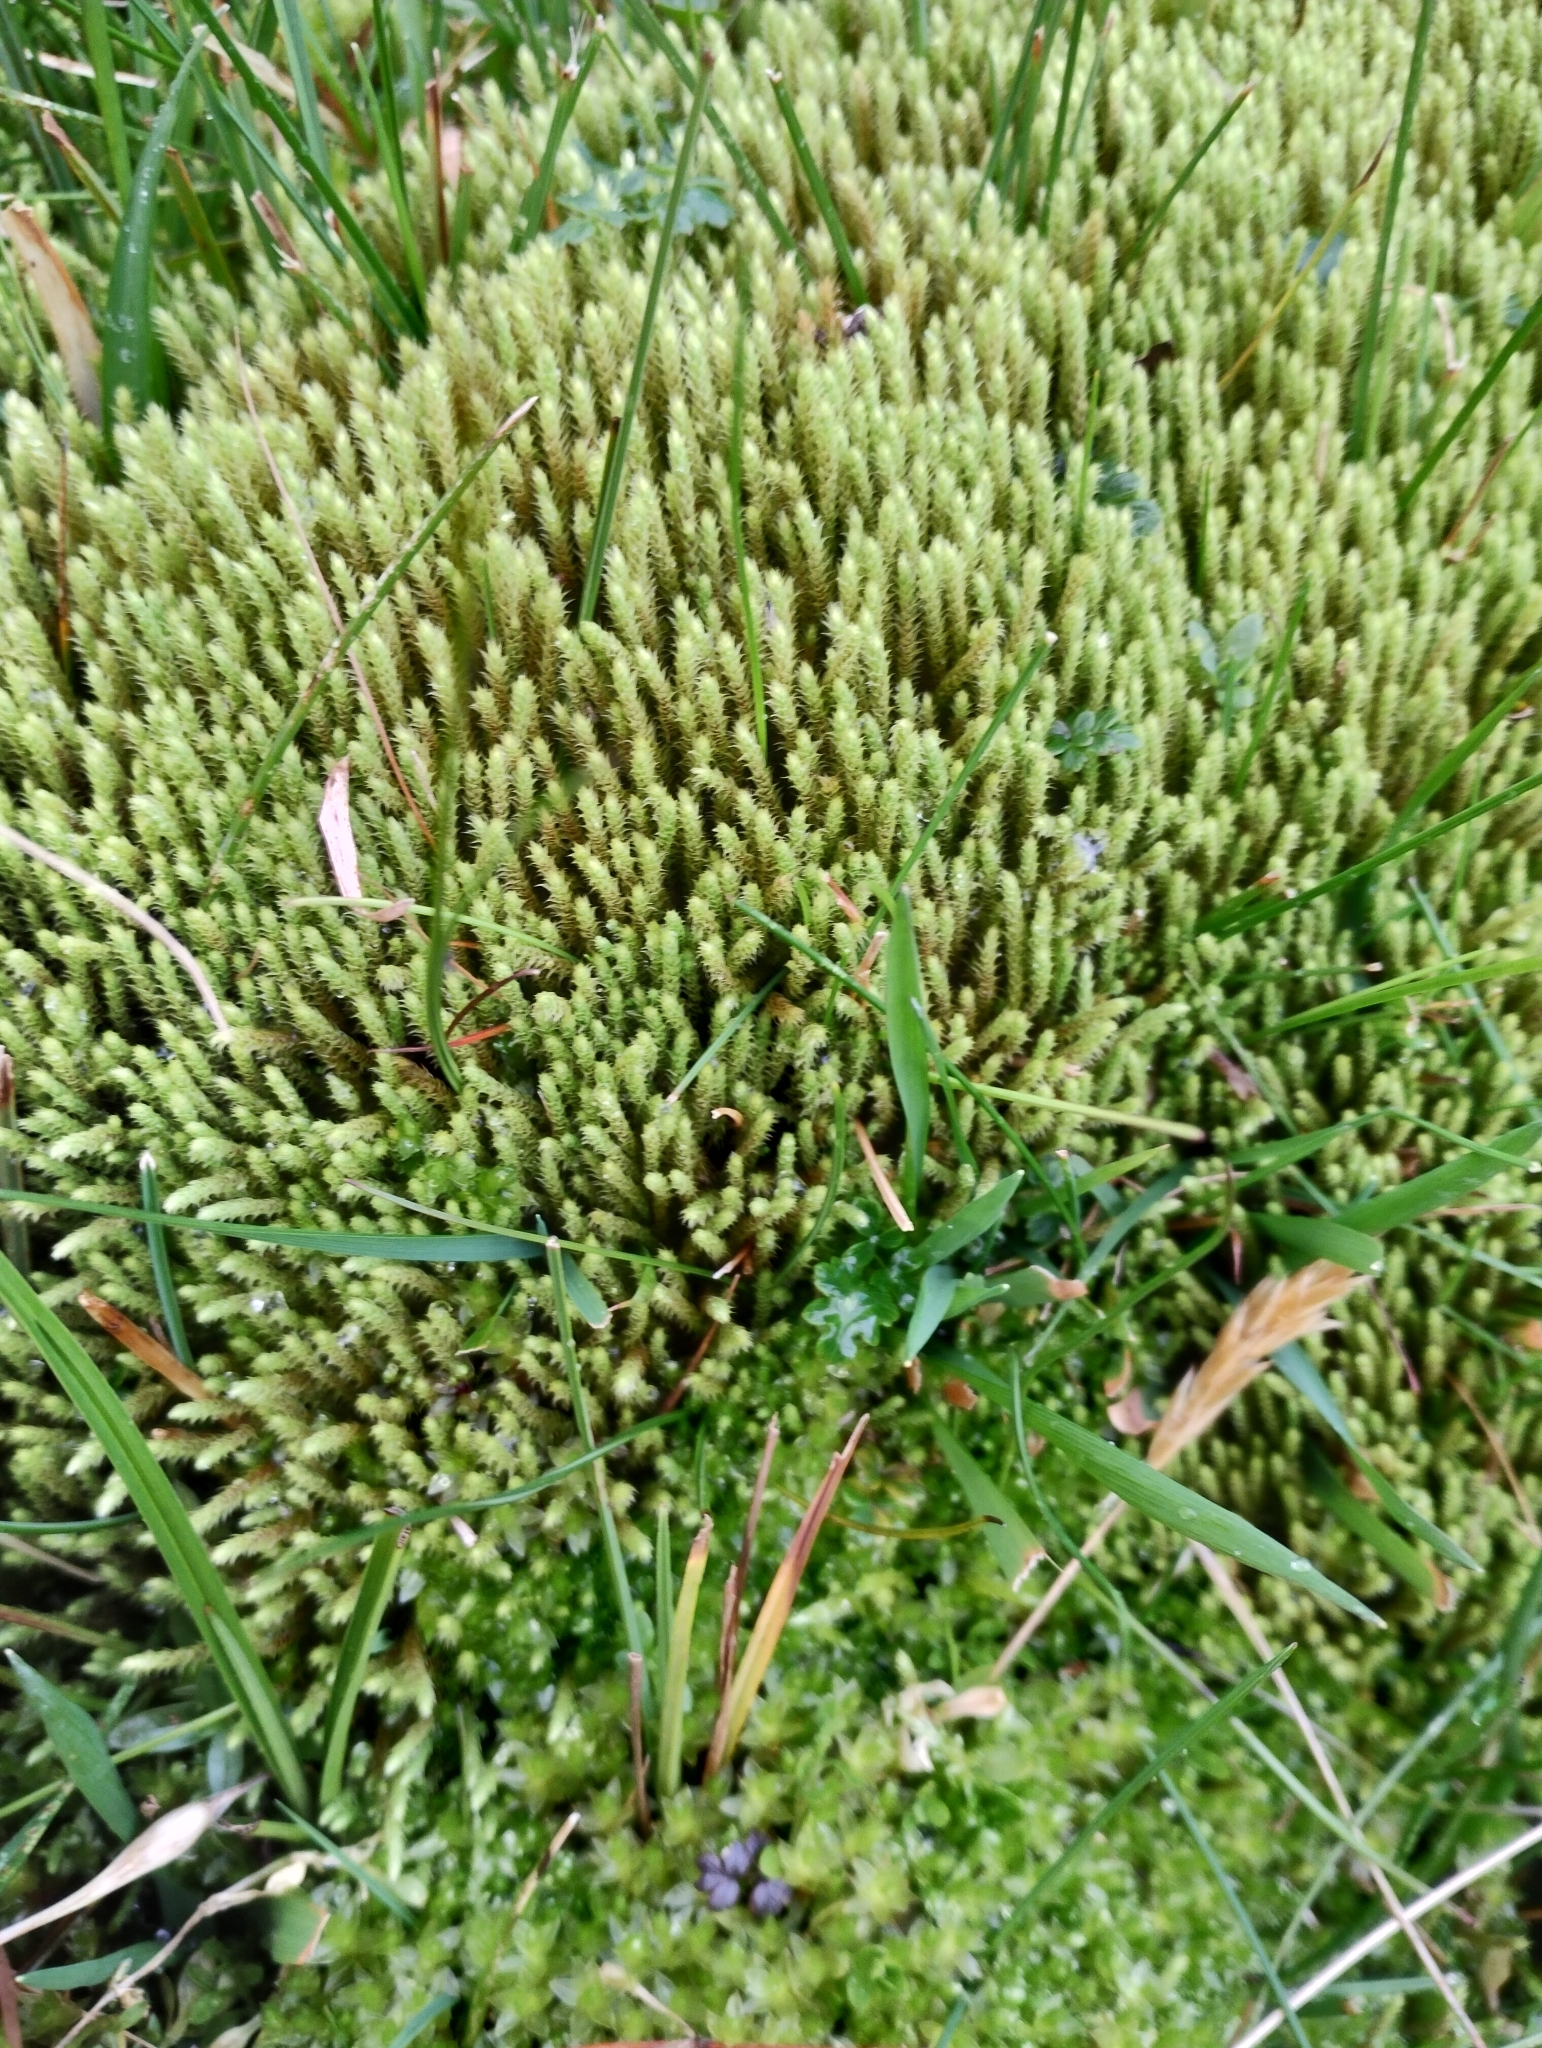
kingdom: Plantae
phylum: Bryophyta
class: Bryopsida
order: Bartramiales
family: Bartramiaceae
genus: Philonotis
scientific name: Philonotis fontana
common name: Fountain apple-moss
